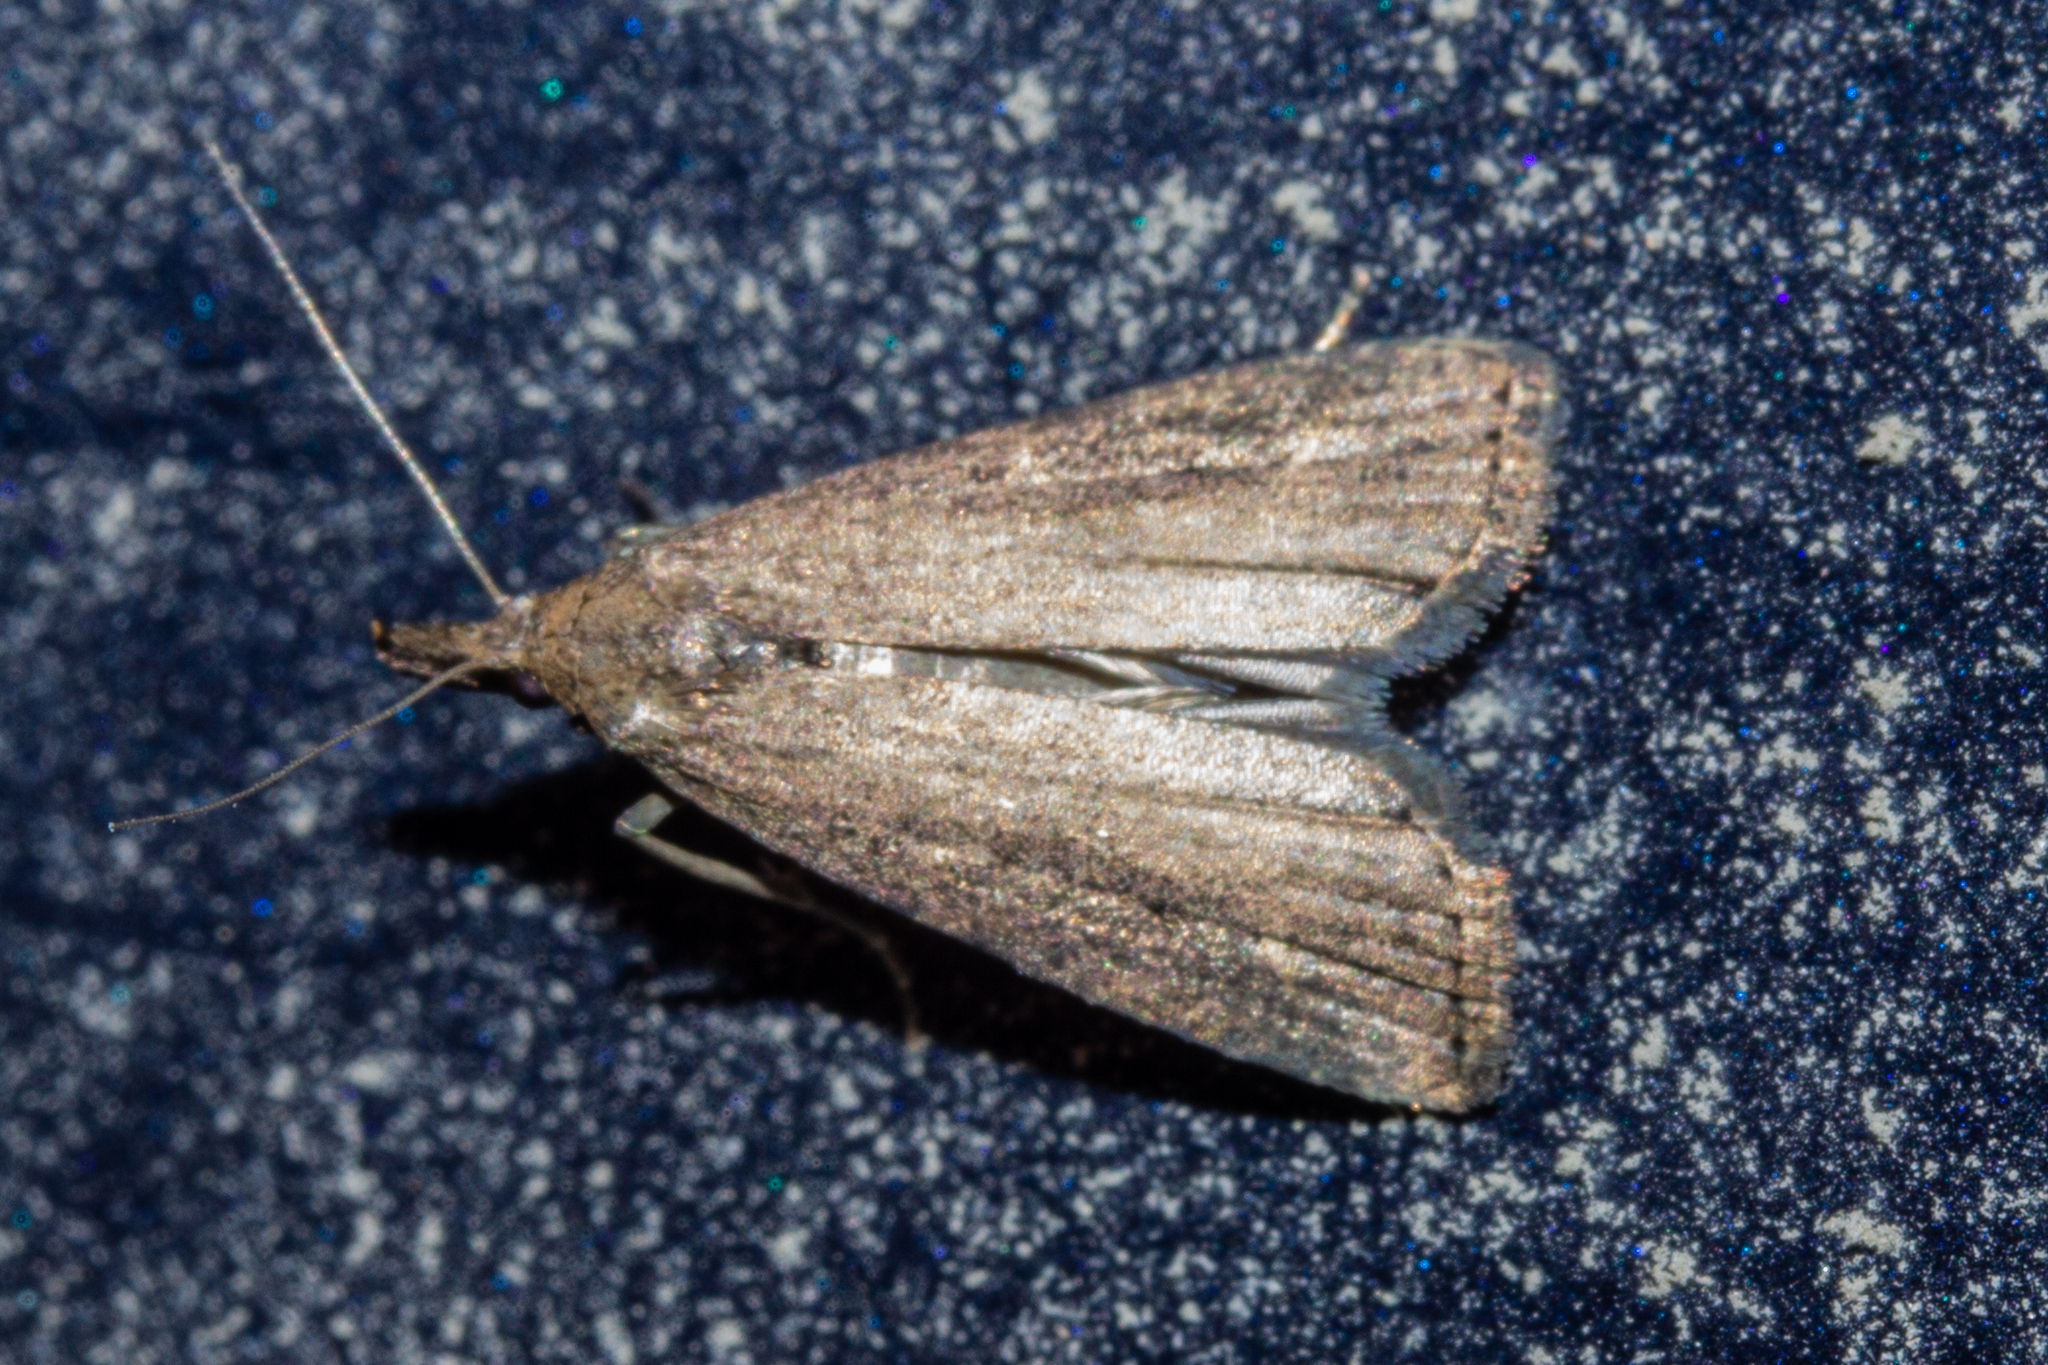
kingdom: Animalia
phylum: Arthropoda
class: Insecta
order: Lepidoptera
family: Erebidae
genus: Schrankia
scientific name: Schrankia costaestrigalis
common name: Pinion-streaked snout
